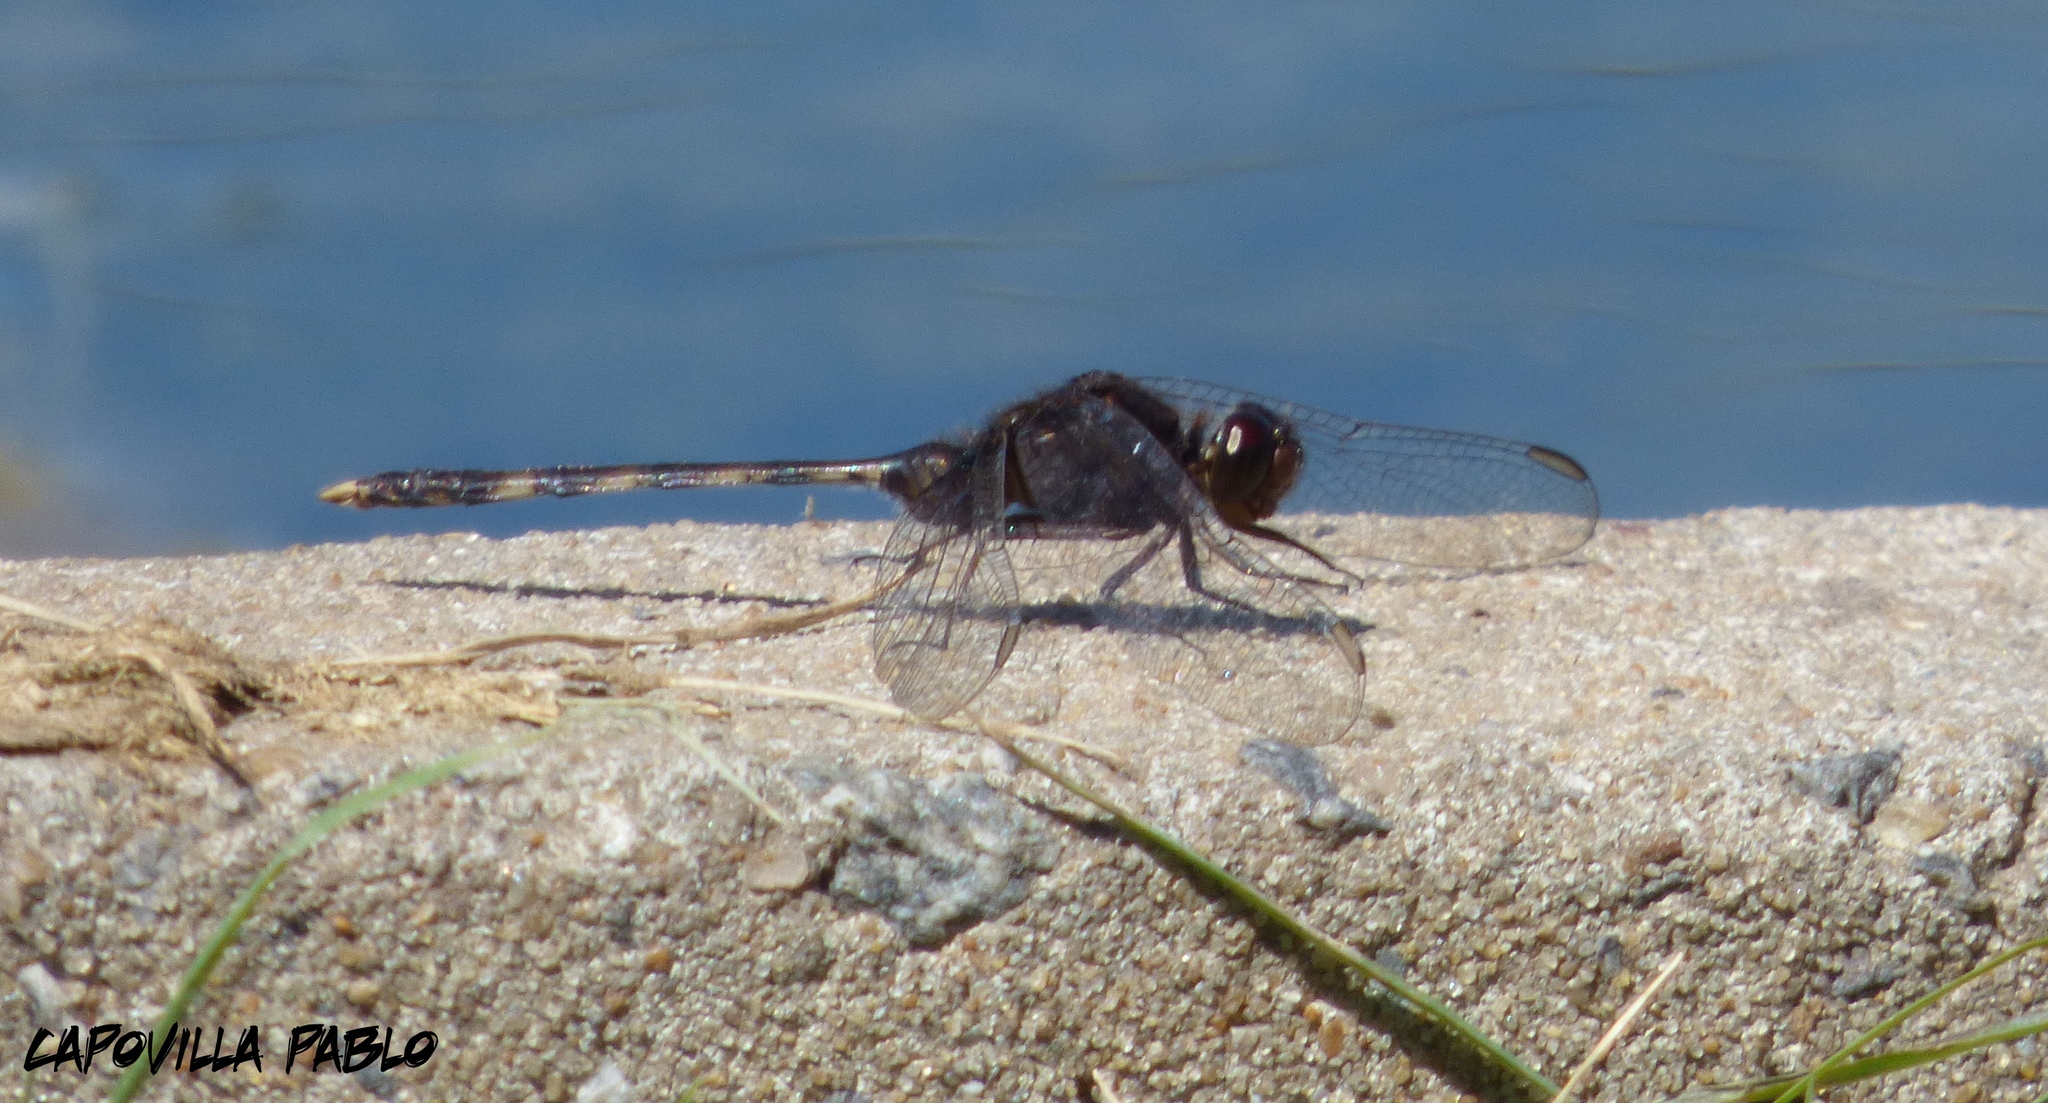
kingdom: Animalia
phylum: Arthropoda
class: Insecta
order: Odonata
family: Libellulidae
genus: Erythemis
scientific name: Erythemis plebeja
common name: Pin-tailed pondhawk
